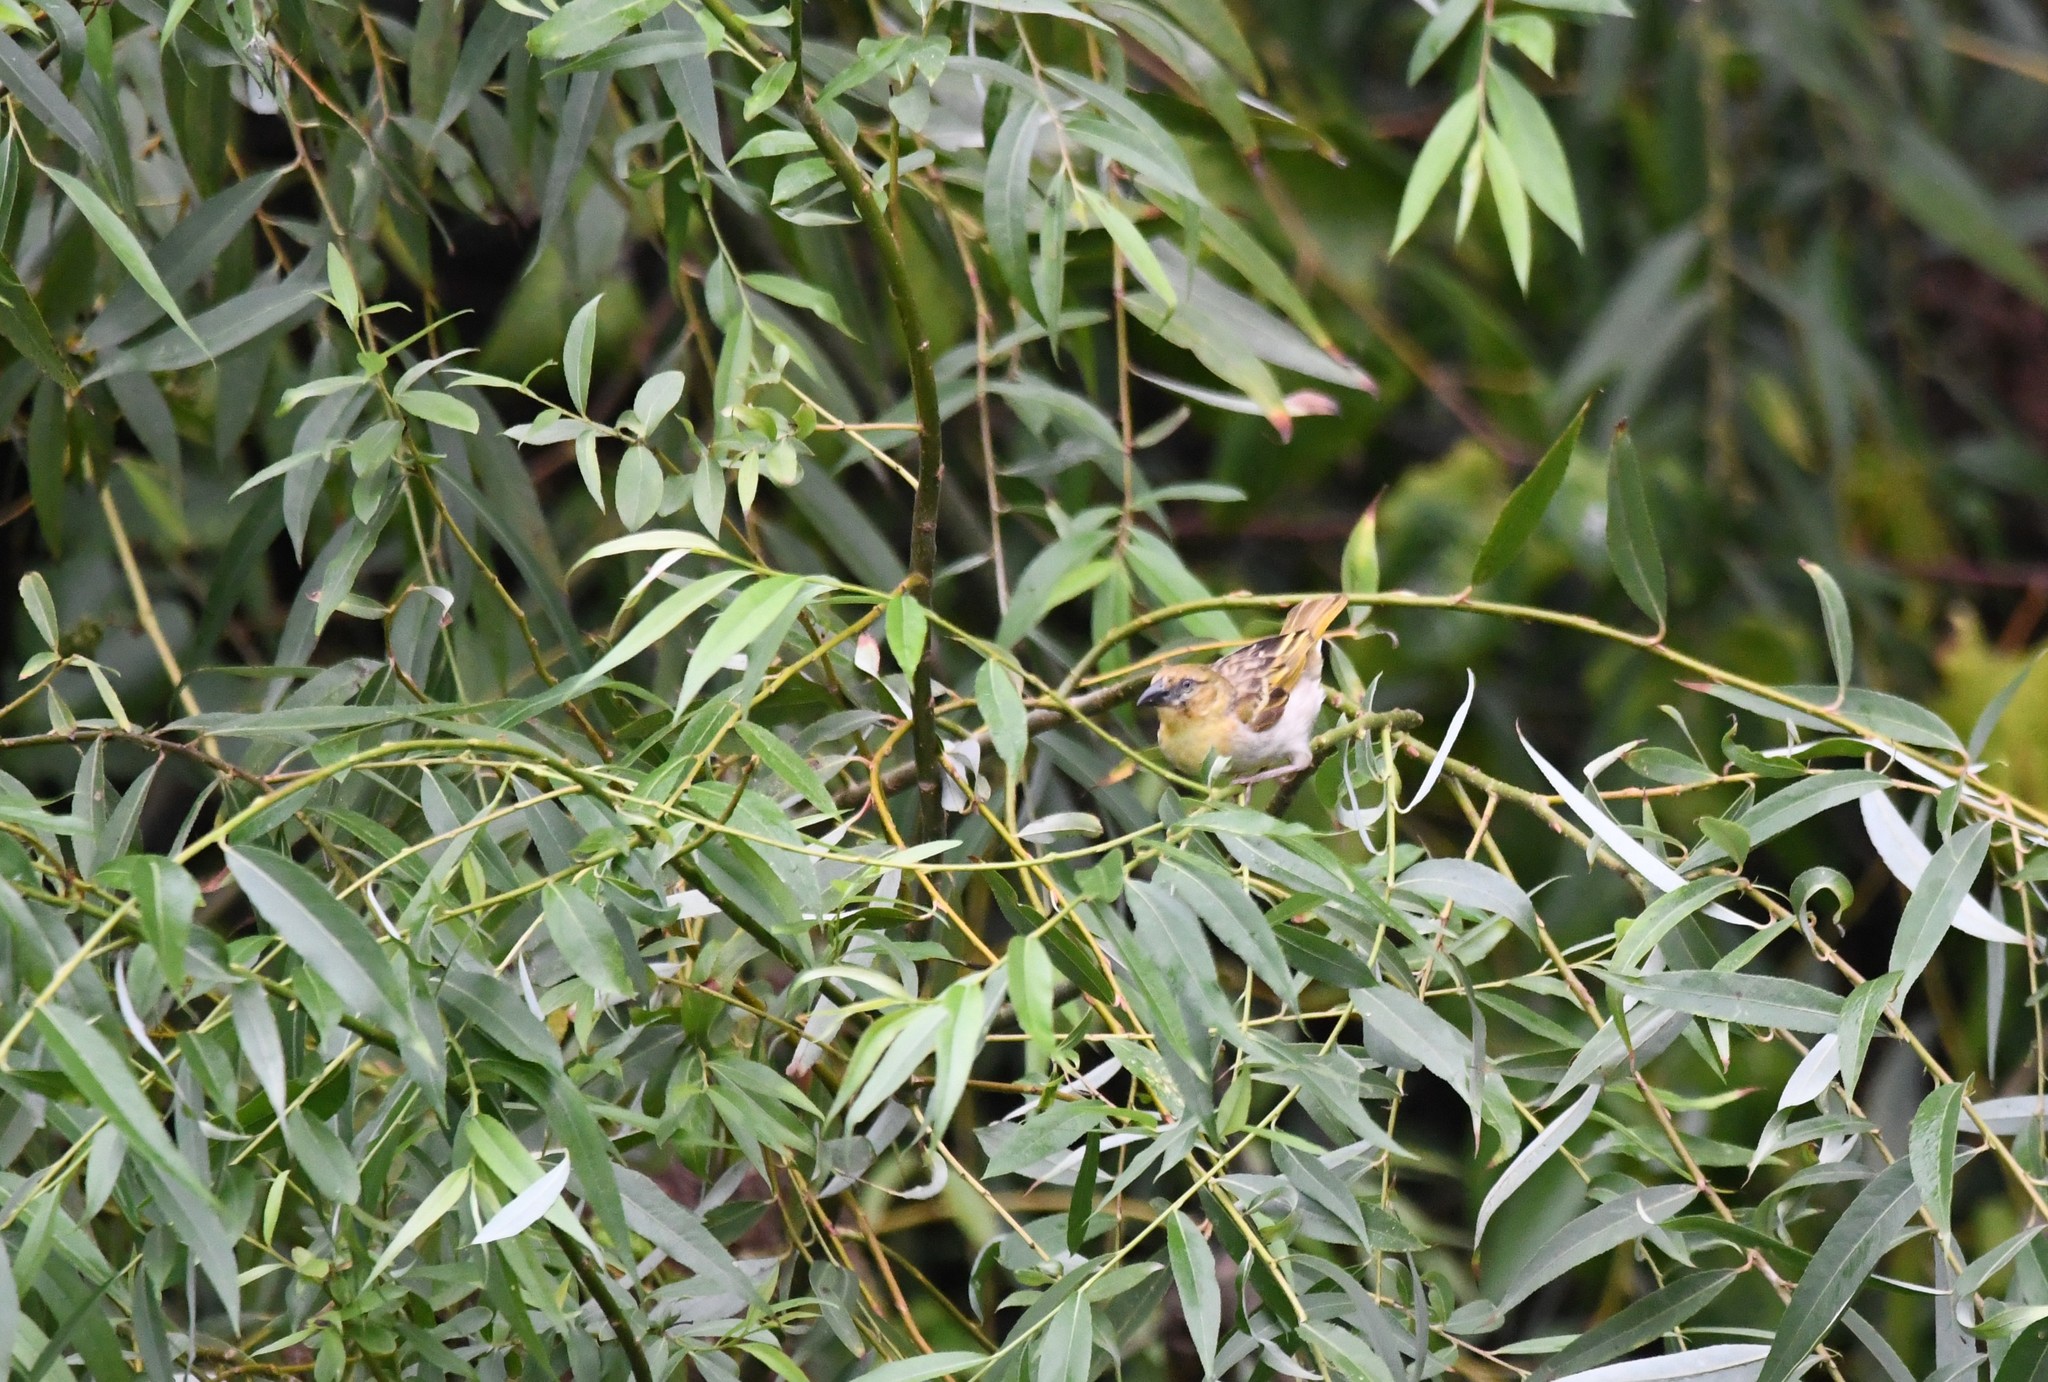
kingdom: Animalia
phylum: Chordata
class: Aves
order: Passeriformes
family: Ploceidae
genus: Ploceus
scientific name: Ploceus melanocephalus
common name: Black-headed weaver
